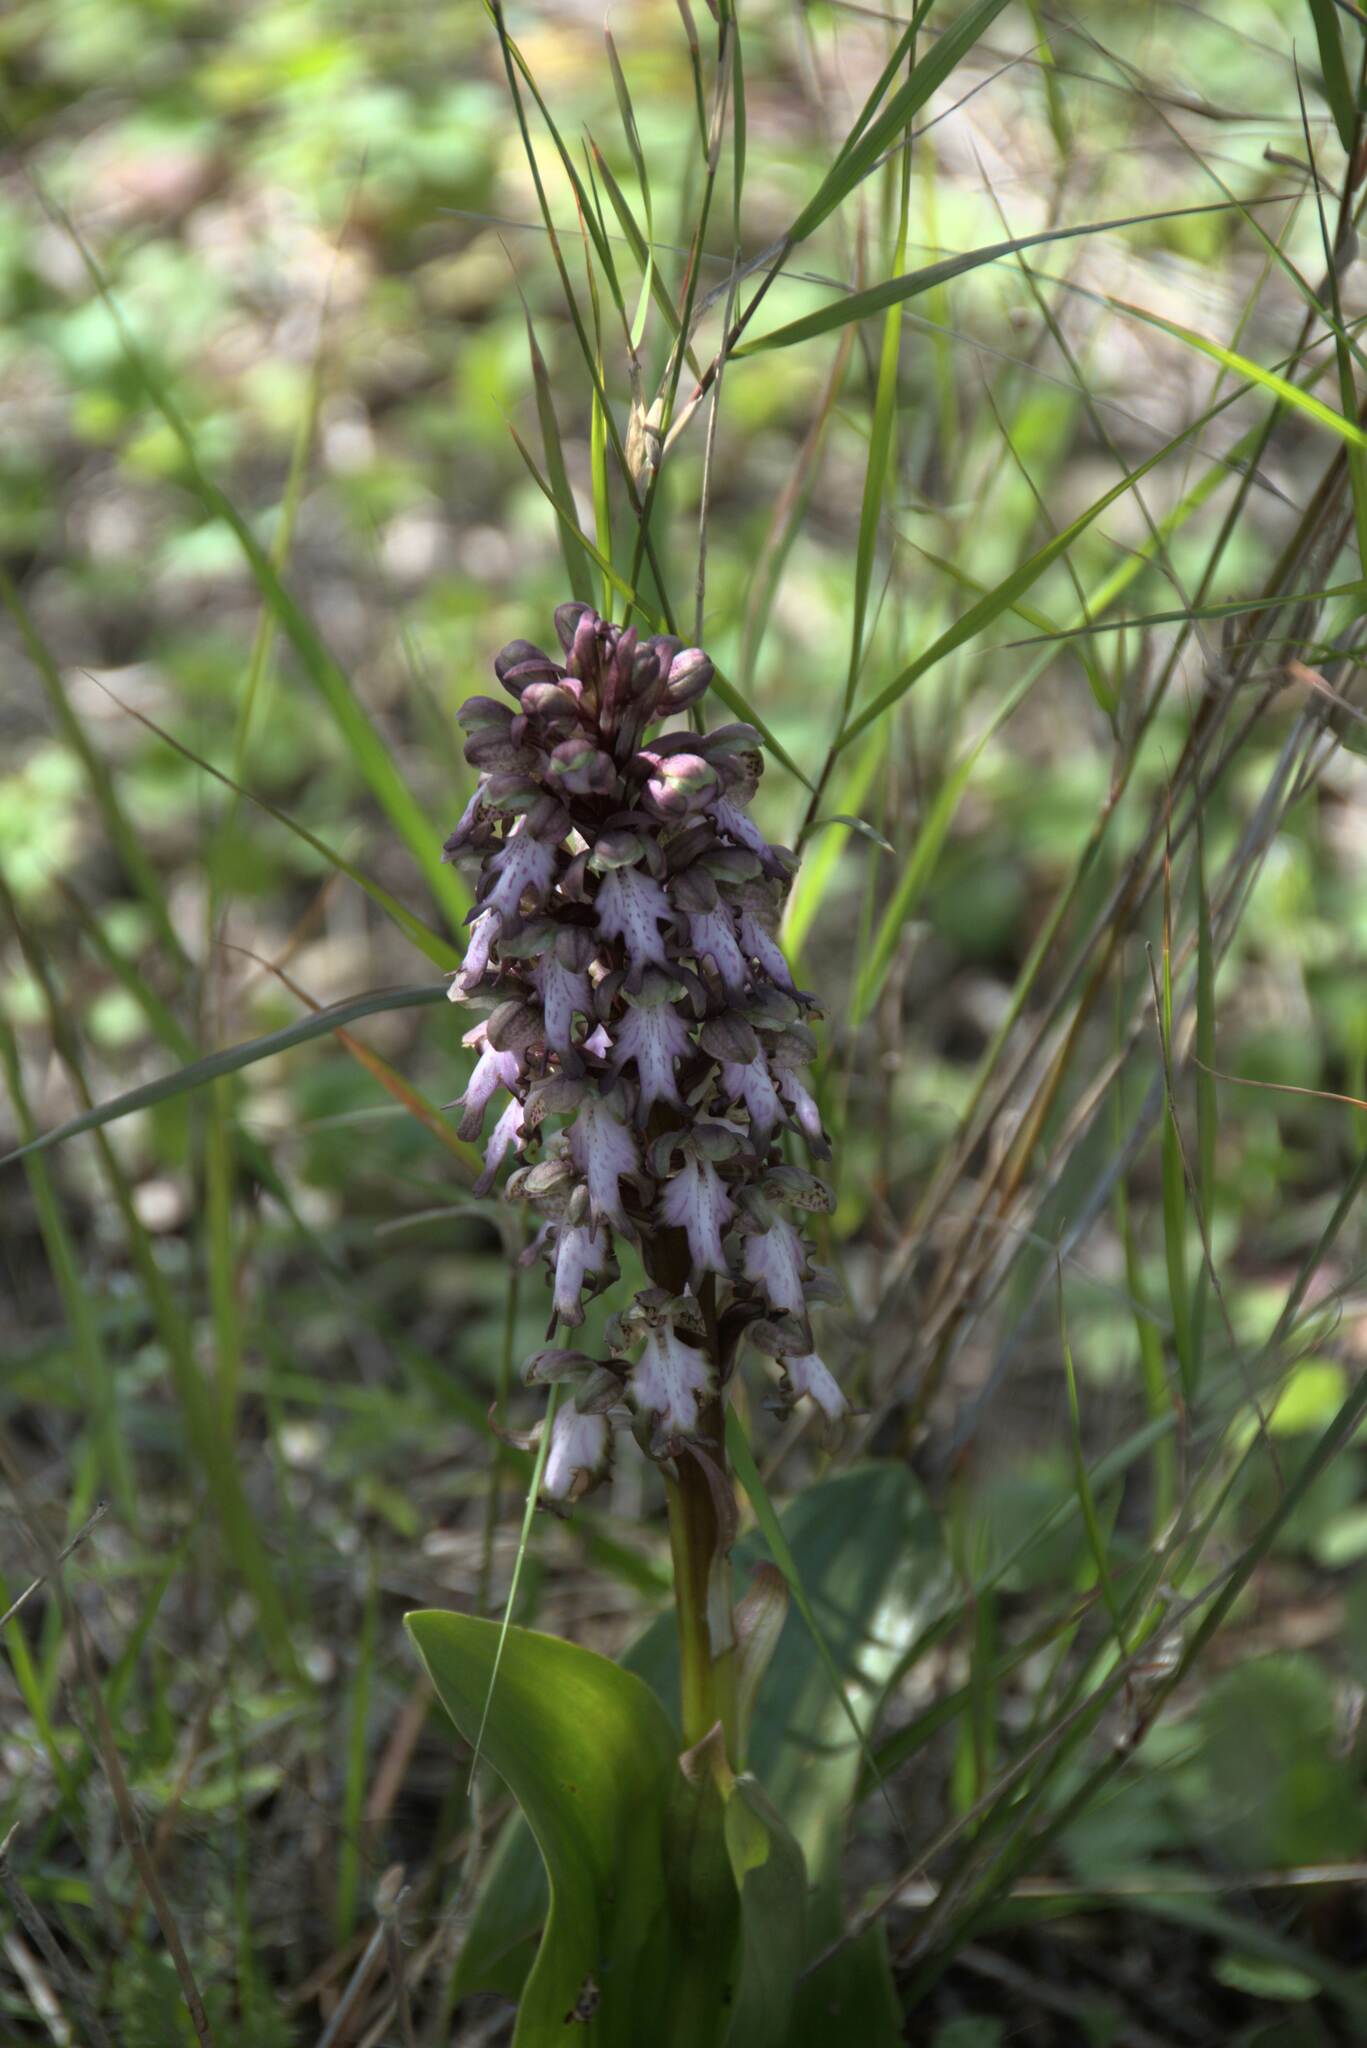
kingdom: Plantae
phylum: Tracheophyta
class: Liliopsida
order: Asparagales
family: Orchidaceae
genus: Himantoglossum
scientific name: Himantoglossum robertianum
